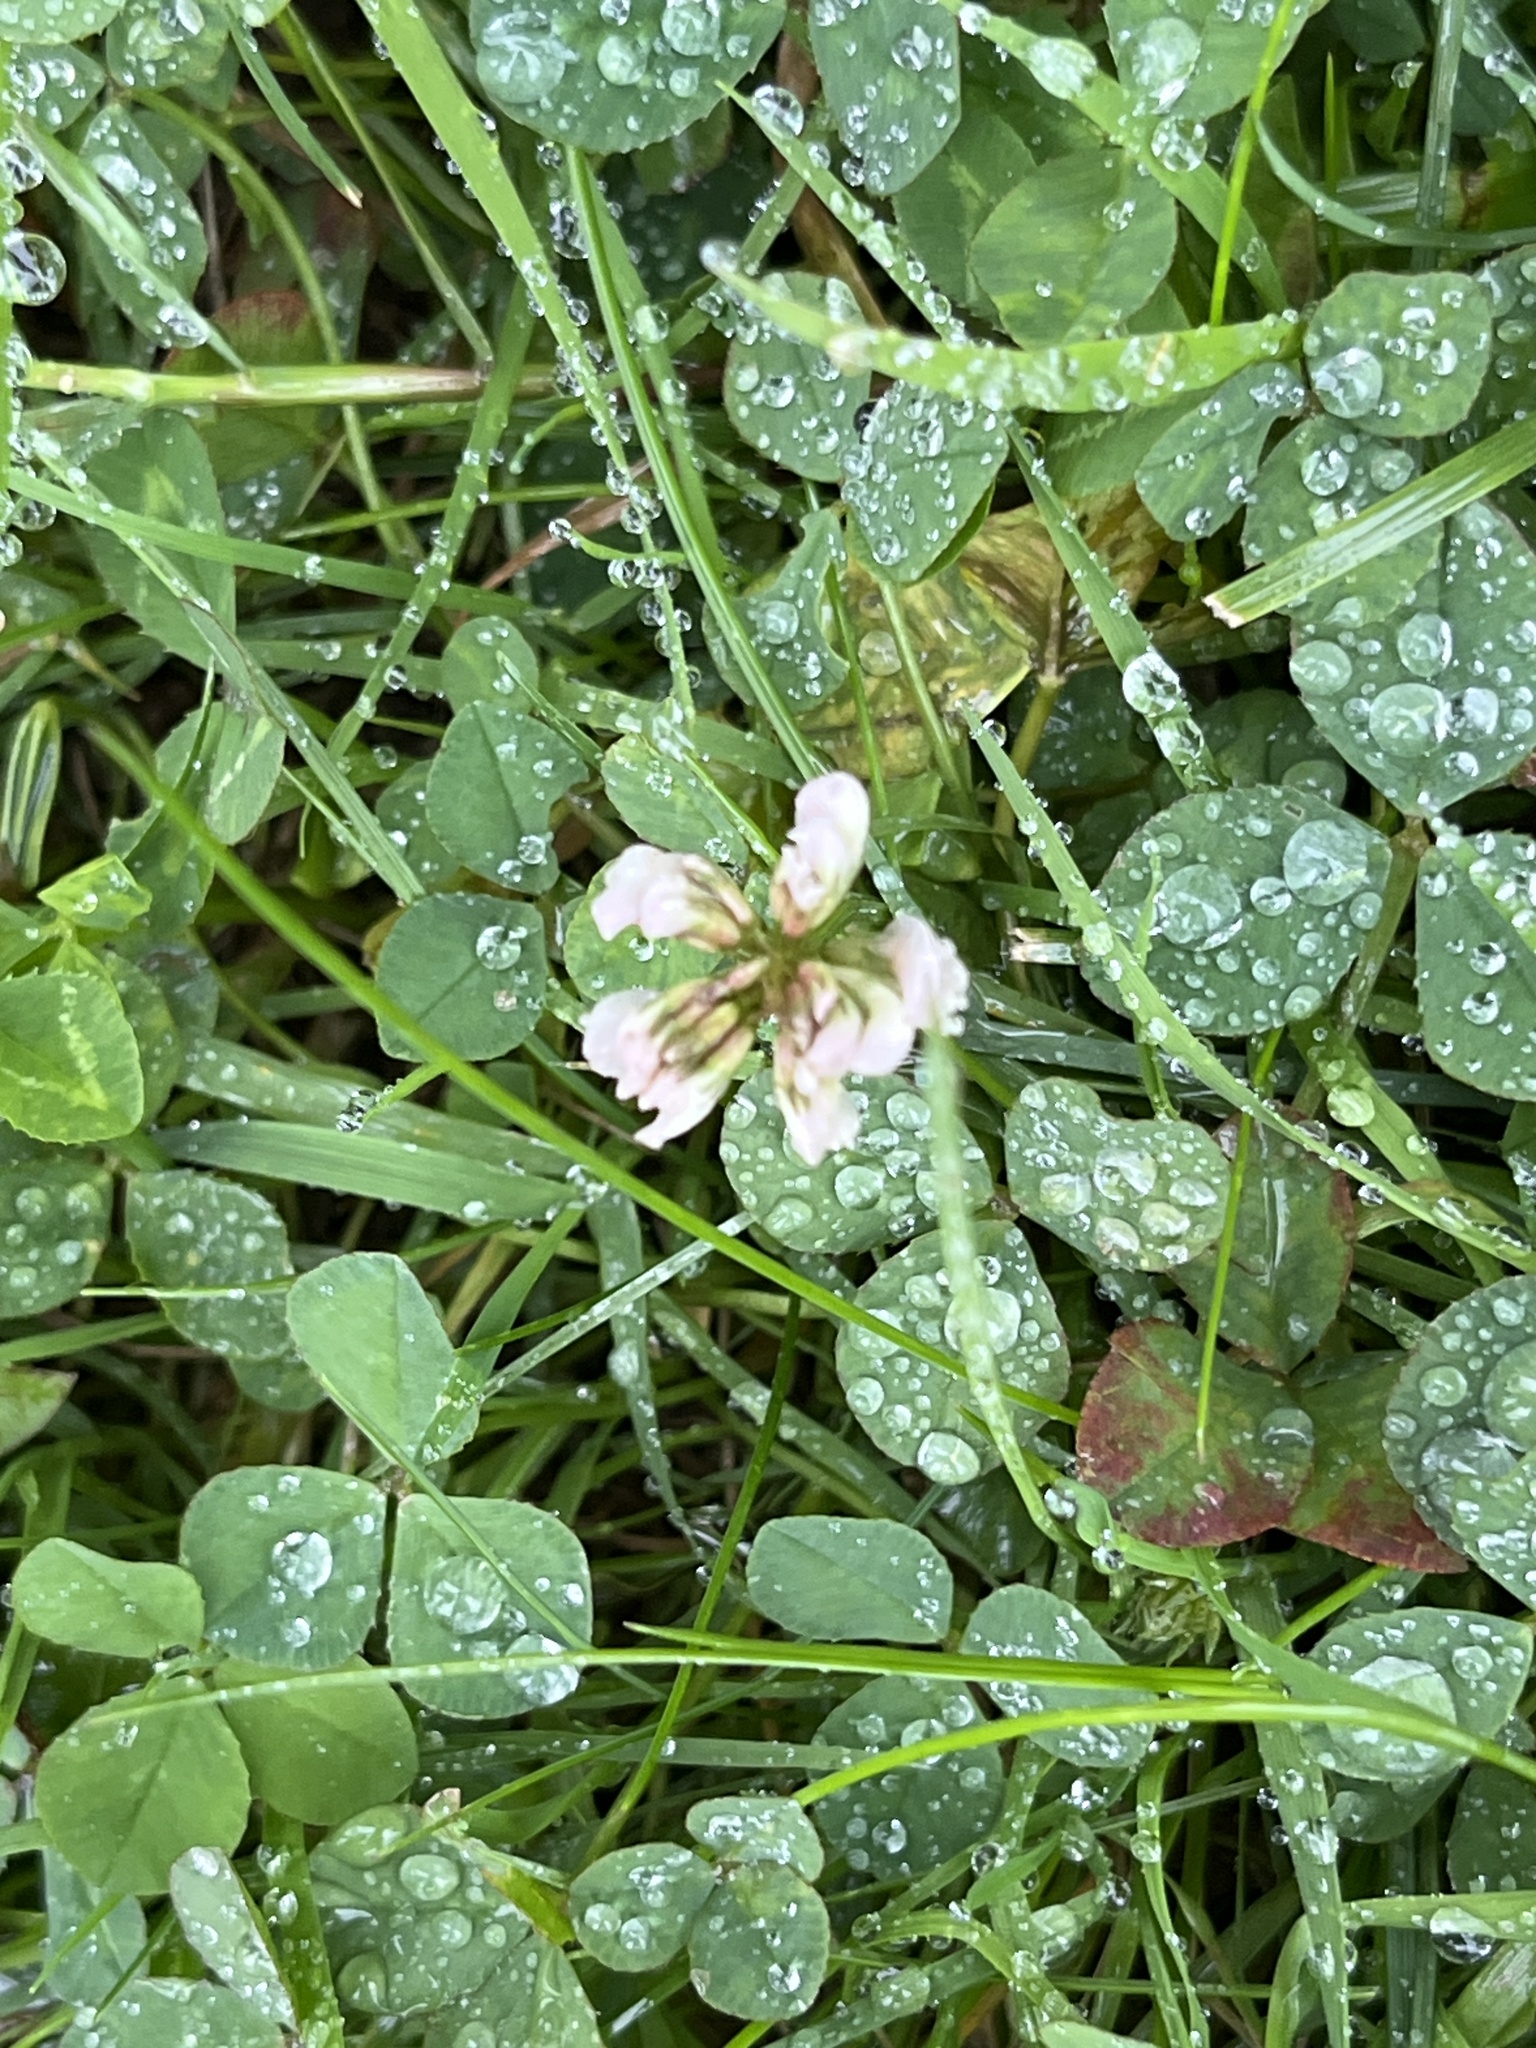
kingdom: Plantae
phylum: Tracheophyta
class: Magnoliopsida
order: Fabales
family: Fabaceae
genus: Trifolium
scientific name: Trifolium repens
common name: White clover
